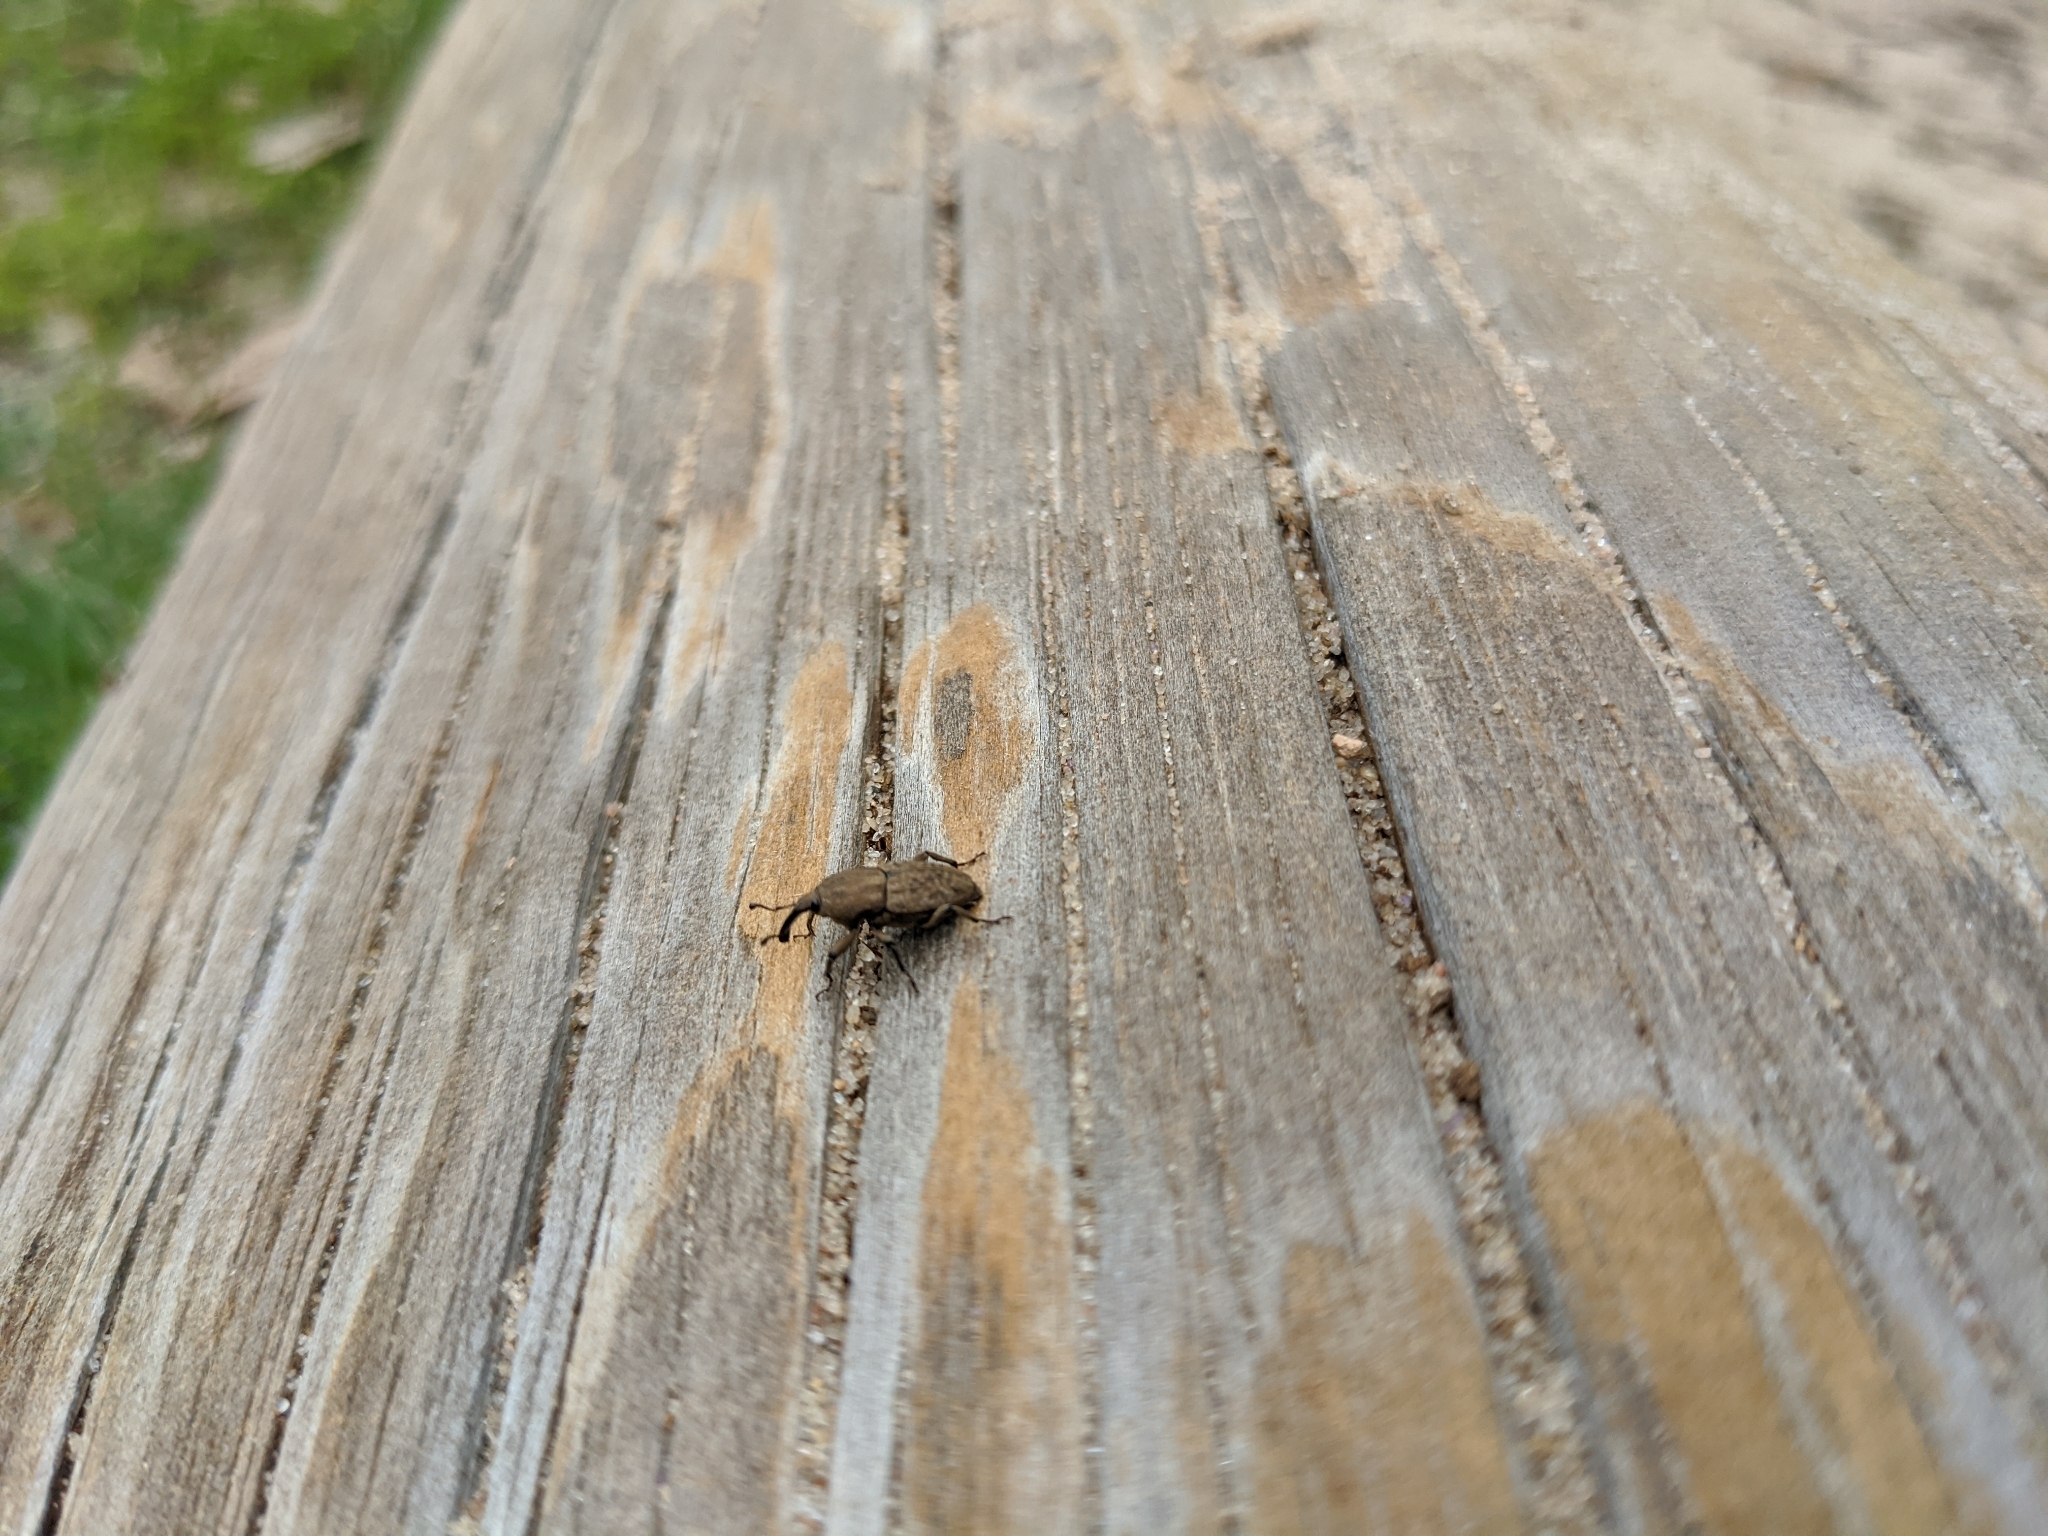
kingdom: Animalia
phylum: Arthropoda
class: Insecta
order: Coleoptera
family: Dryophthoridae
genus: Sphenophorus
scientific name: Sphenophorus callosus
